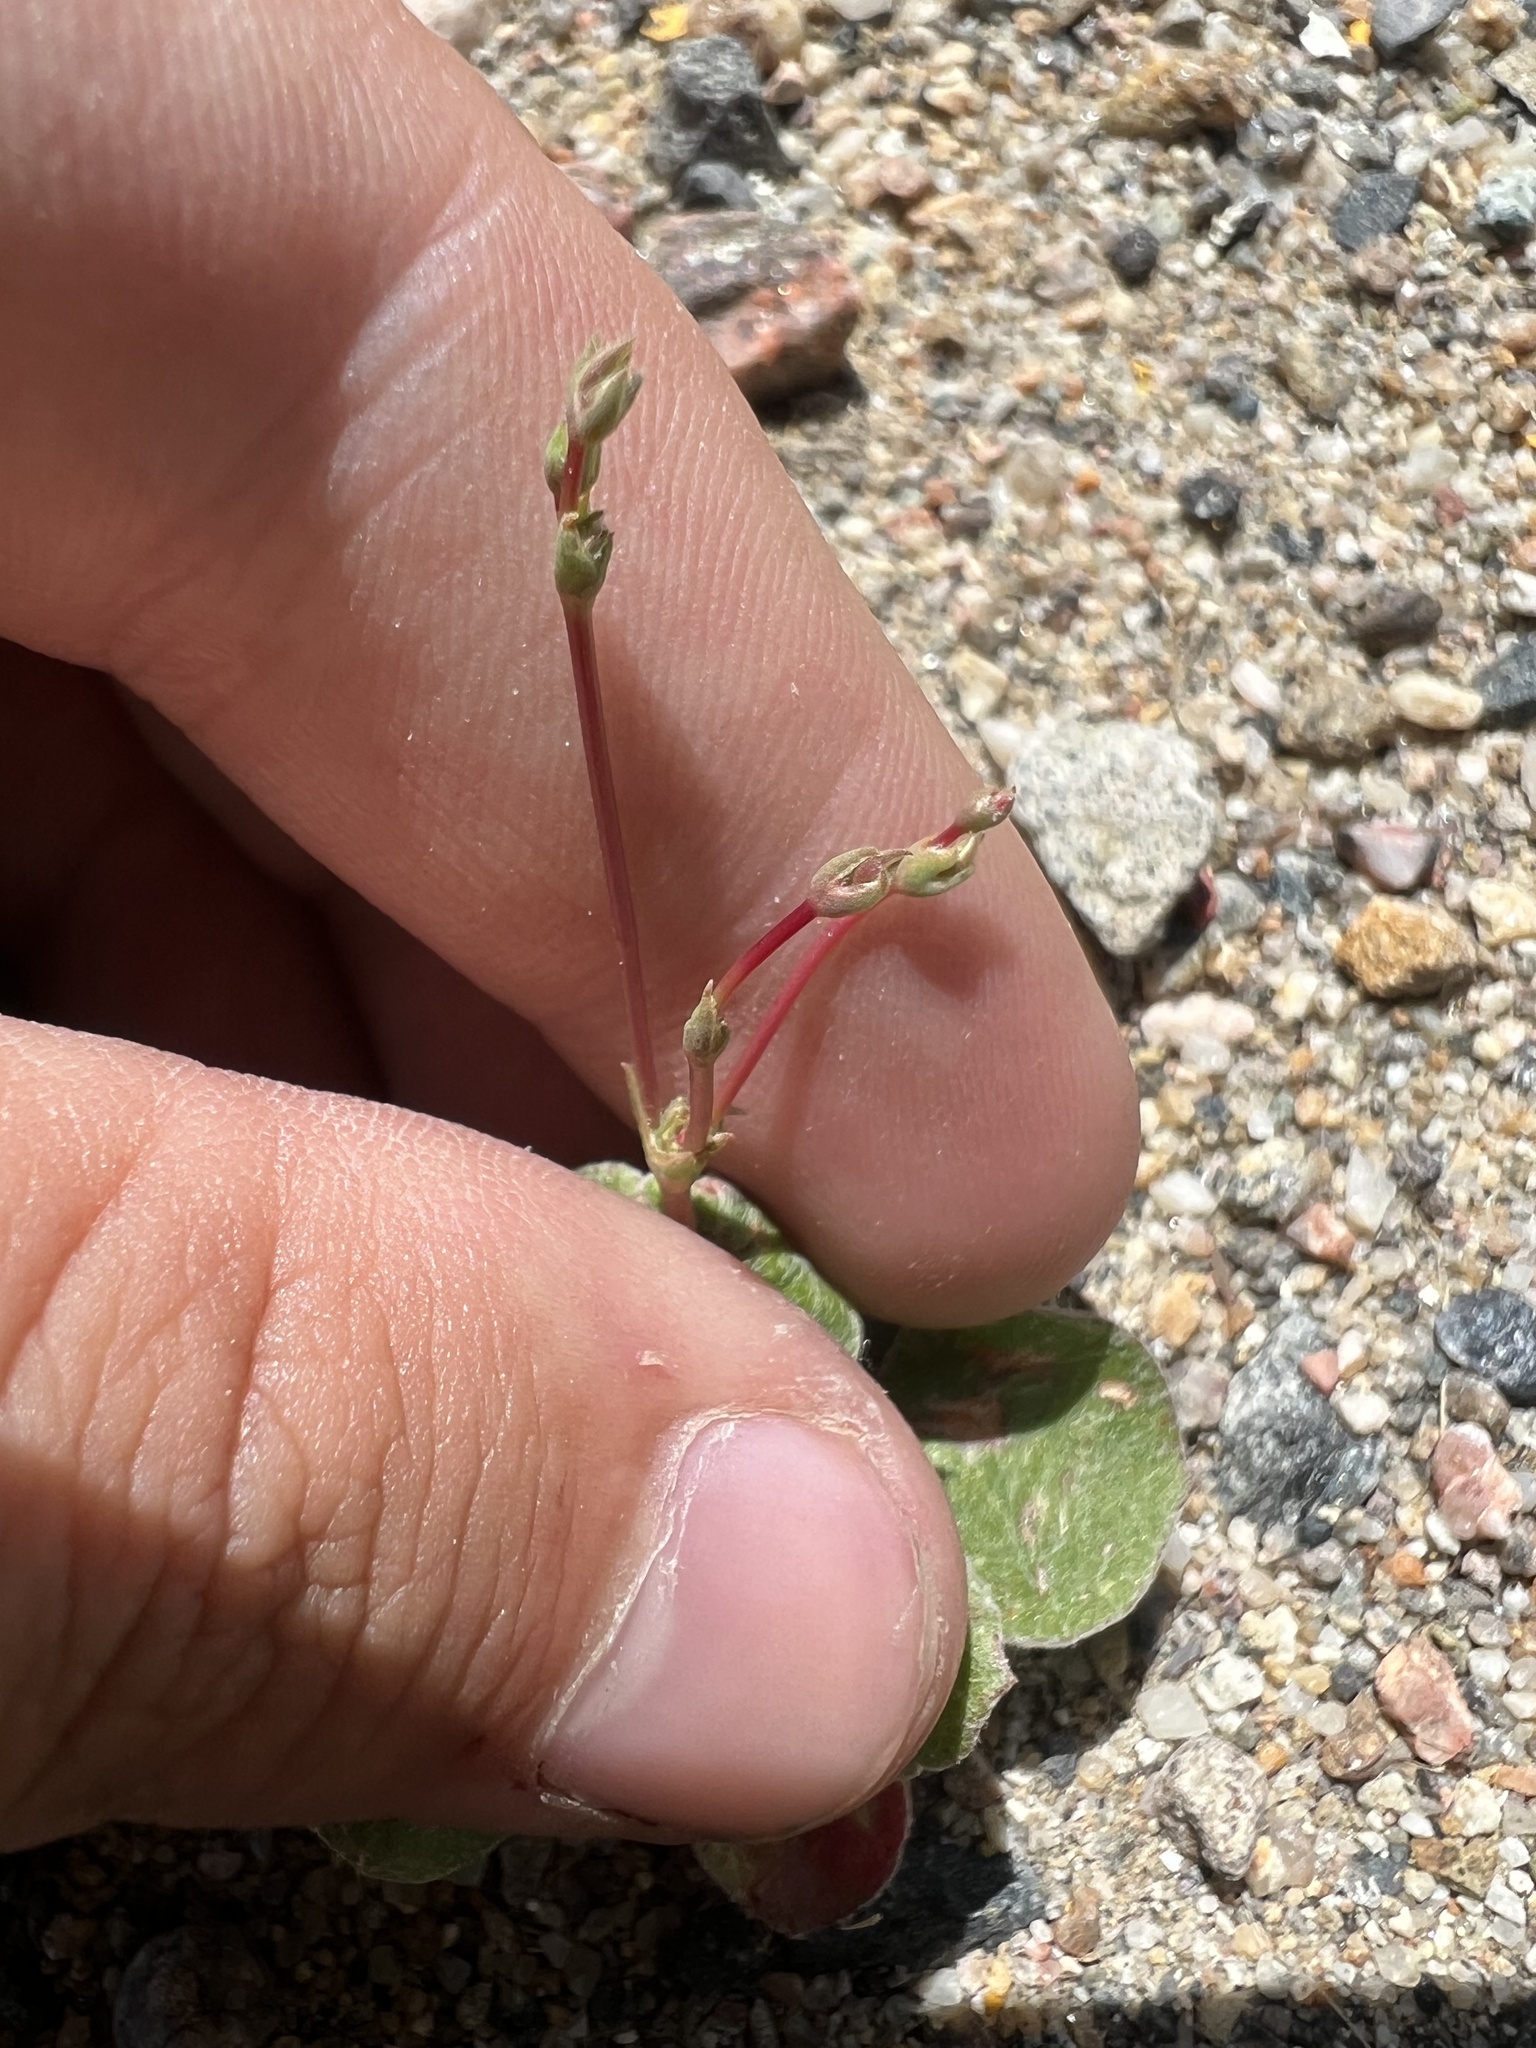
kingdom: Plantae
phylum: Tracheophyta
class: Magnoliopsida
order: Caryophyllales
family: Polygonaceae
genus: Eriogonum
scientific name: Eriogonum cernuum
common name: Nodding wild buckwheat
